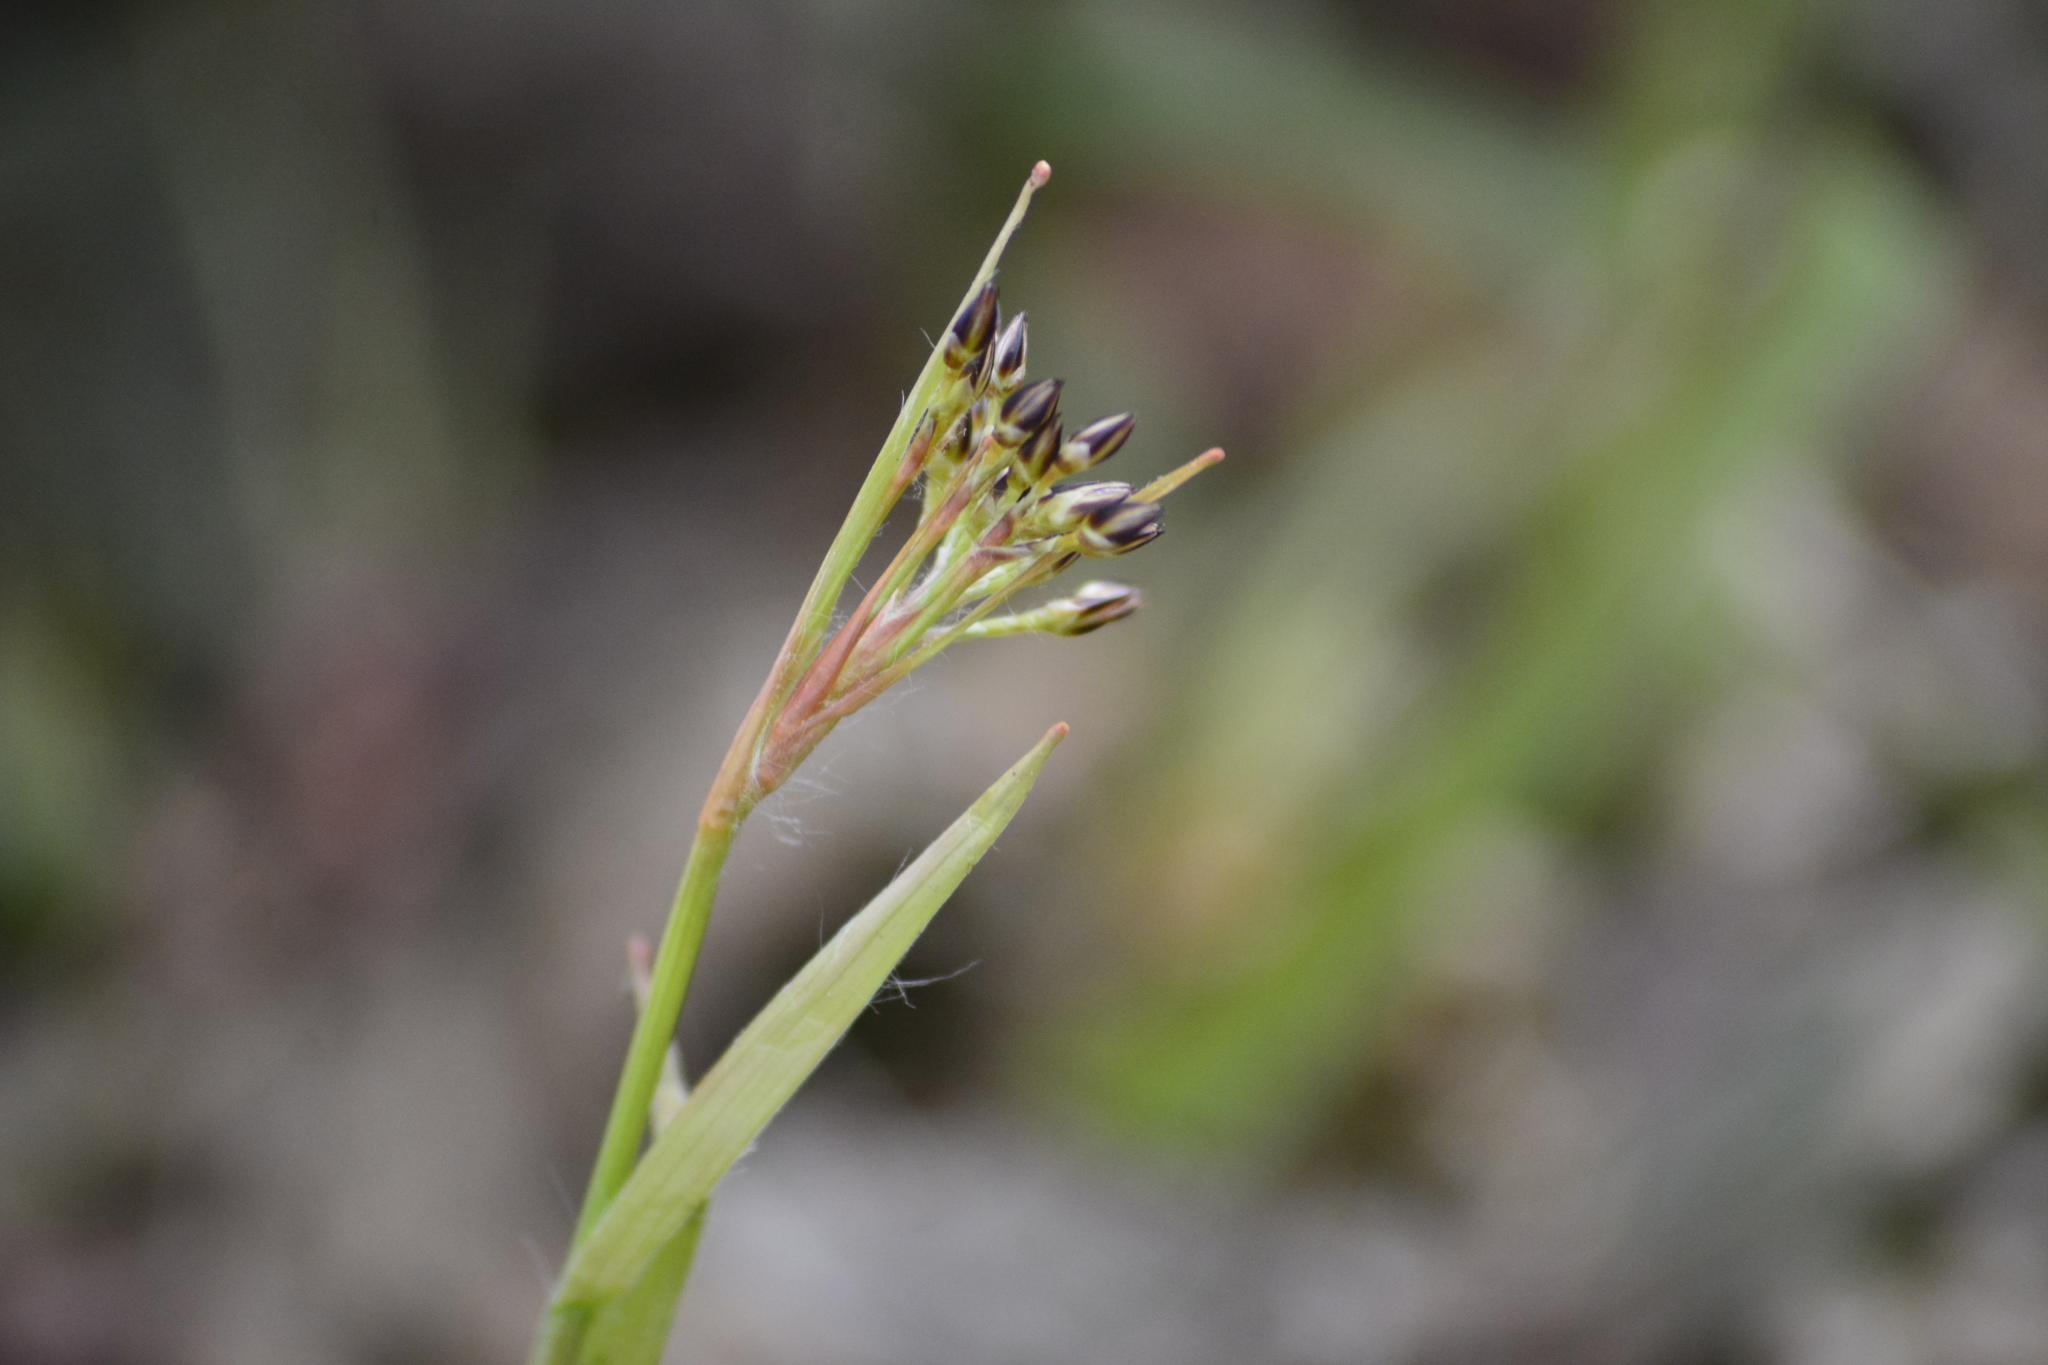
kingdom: Plantae
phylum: Tracheophyta
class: Liliopsida
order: Poales
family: Juncaceae
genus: Luzula
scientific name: Luzula pilosa
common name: Hairy wood-rush
